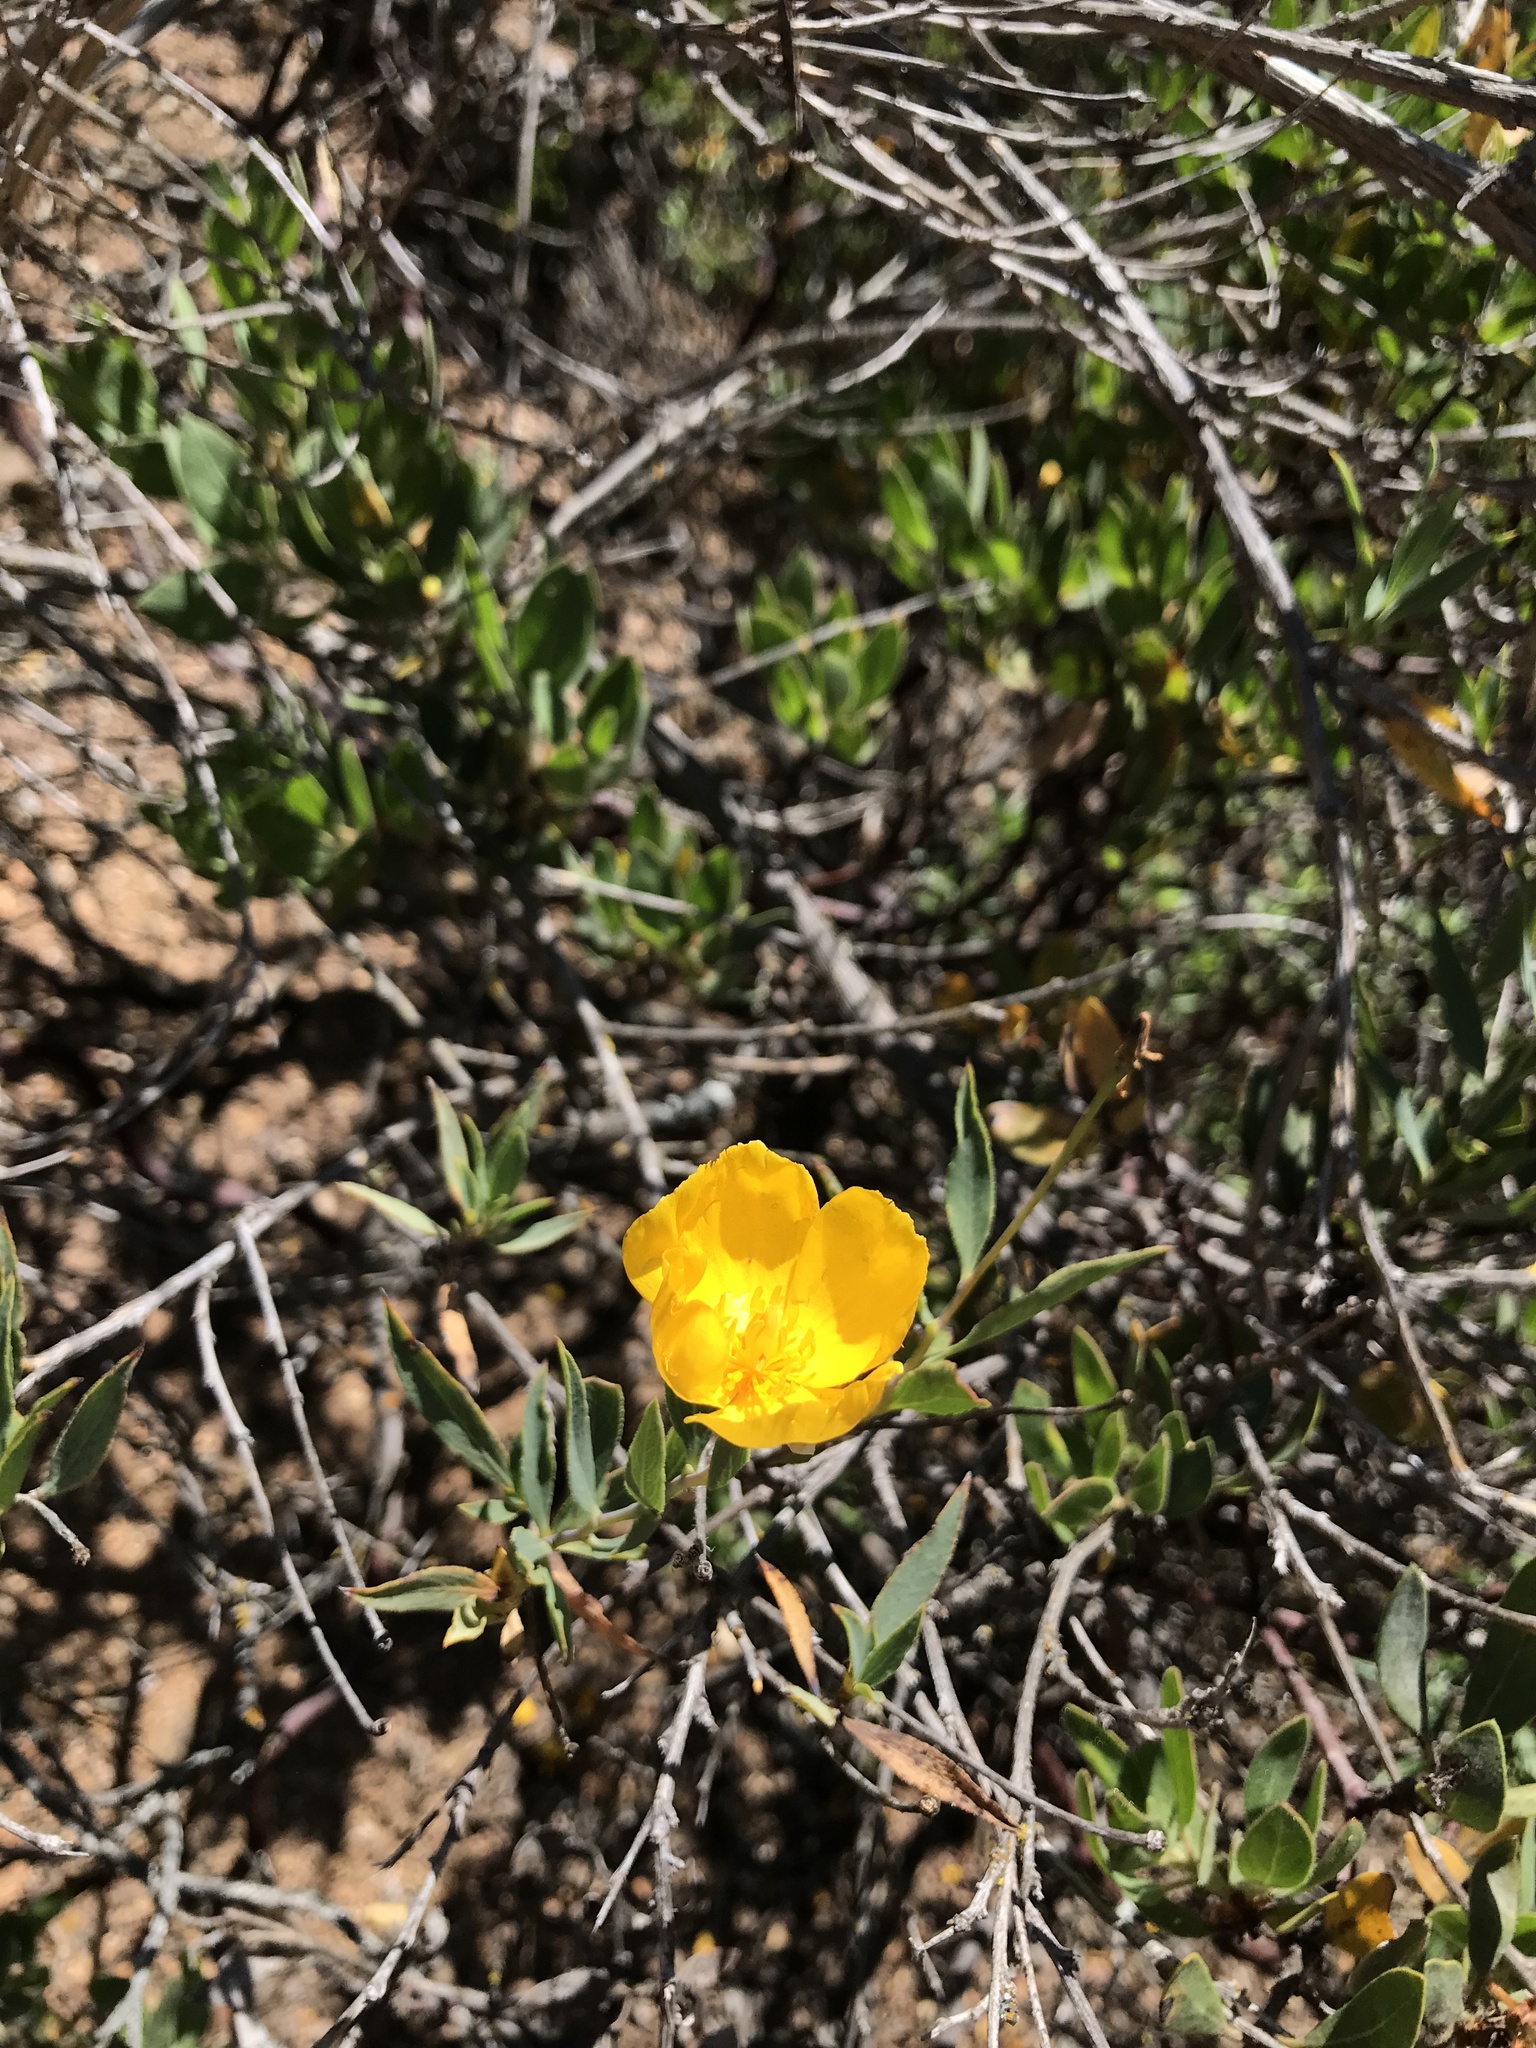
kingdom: Plantae
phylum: Tracheophyta
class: Magnoliopsida
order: Ranunculales
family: Papaveraceae
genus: Dendromecon
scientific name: Dendromecon rigida
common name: Tree poppy
